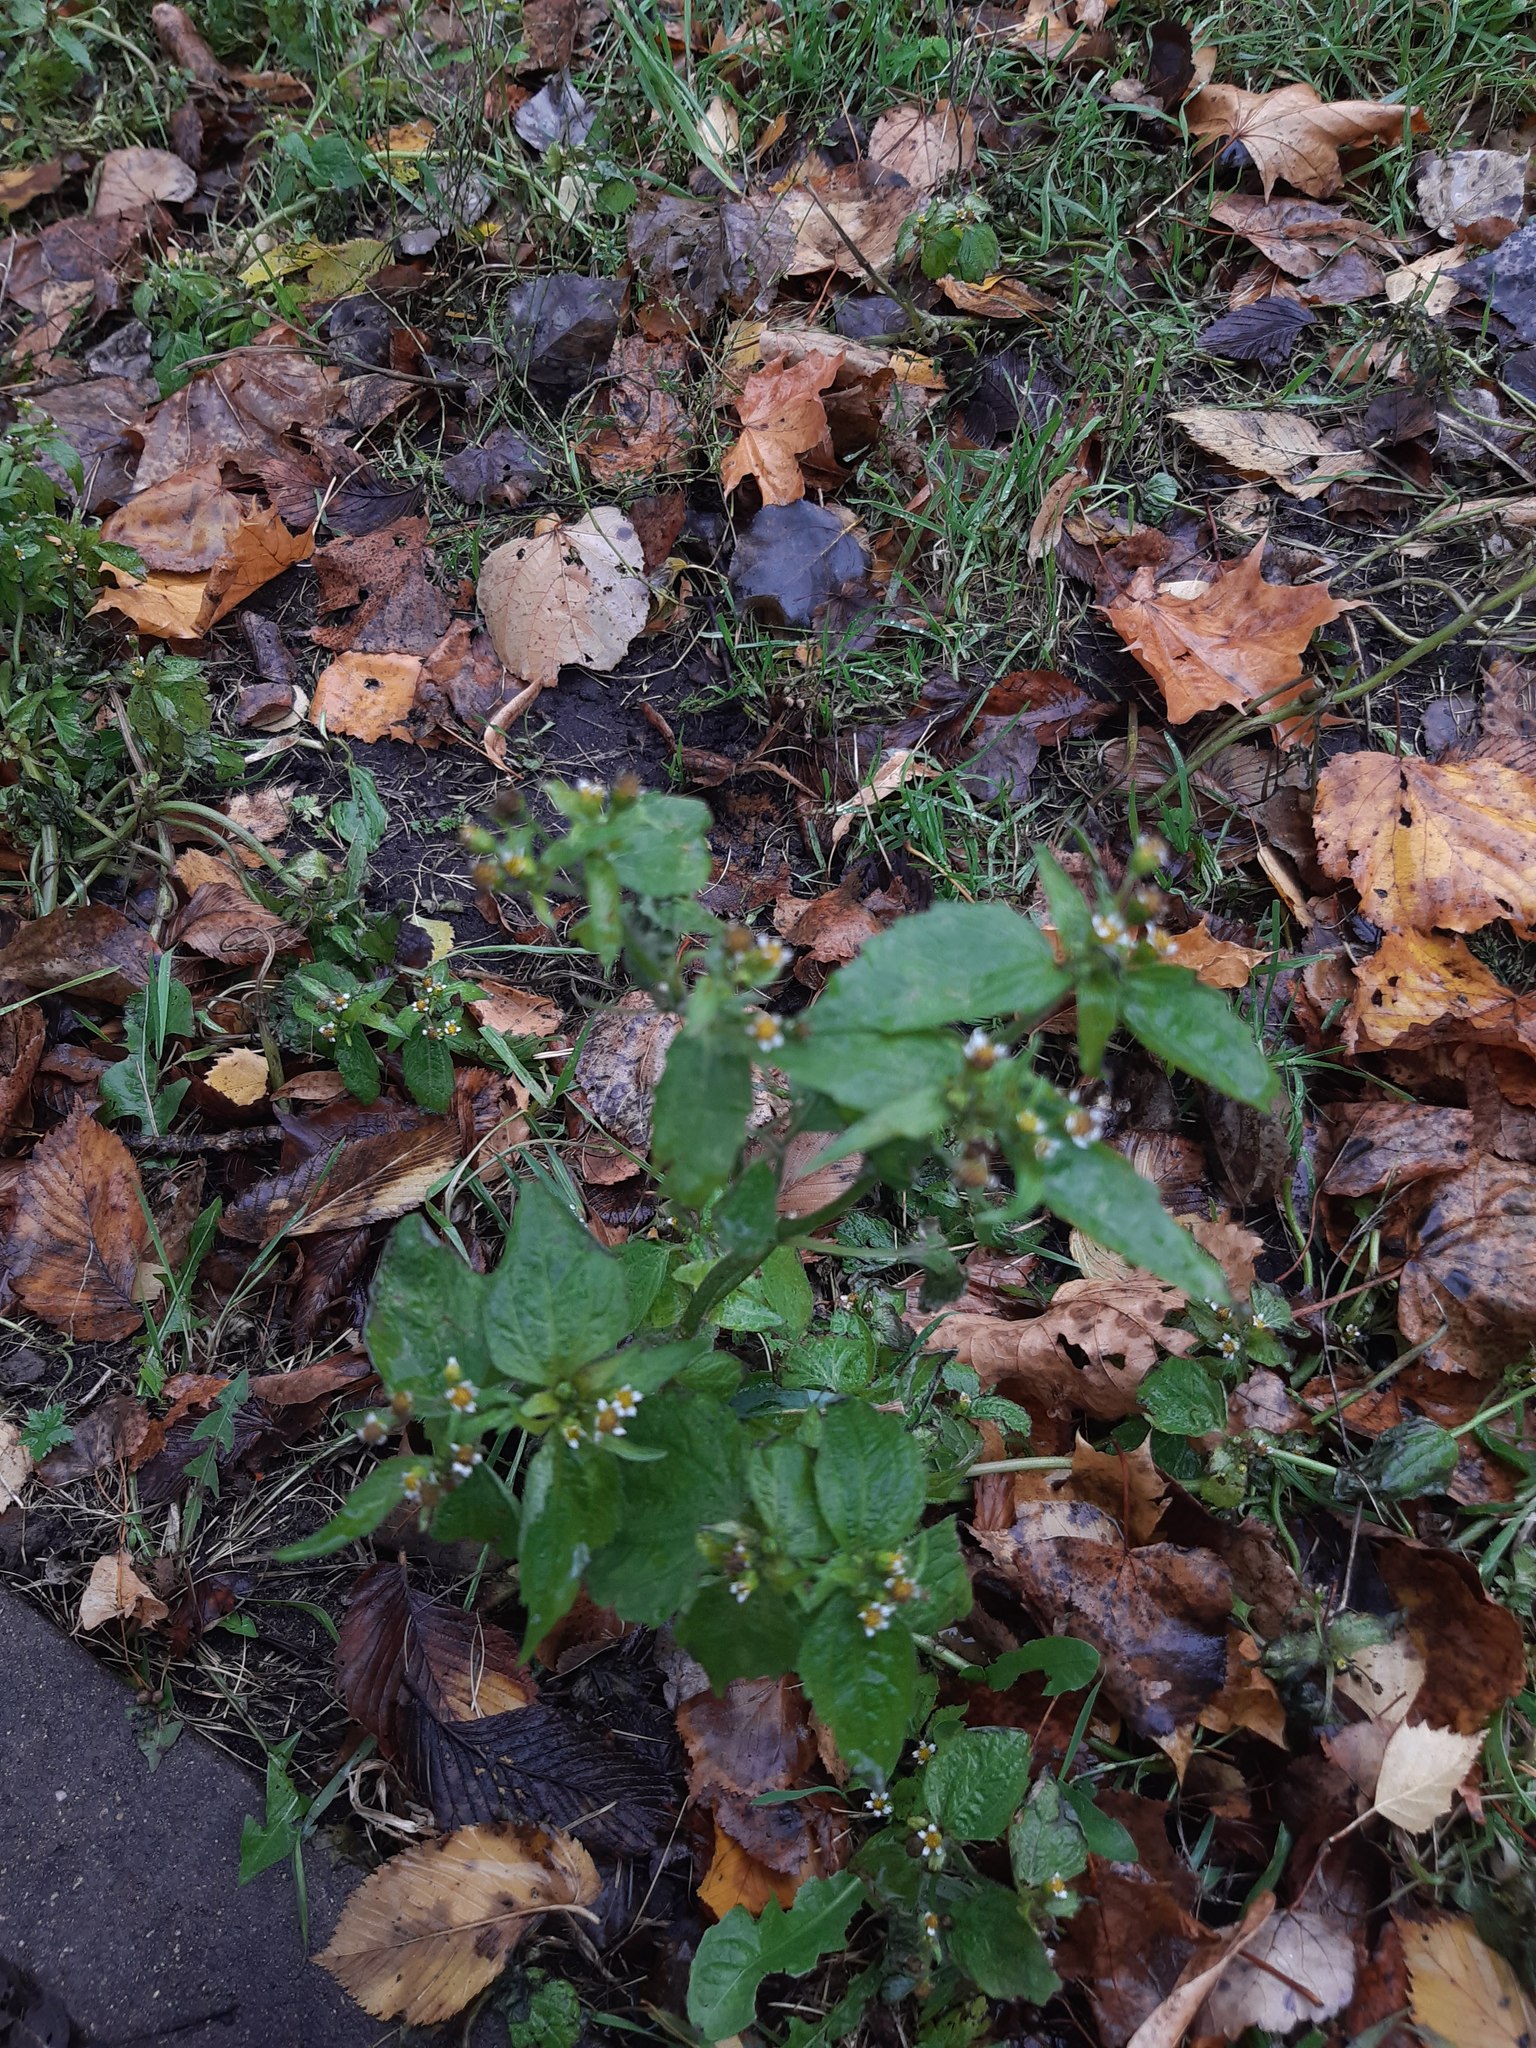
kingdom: Plantae
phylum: Tracheophyta
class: Magnoliopsida
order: Asterales
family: Asteraceae
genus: Galinsoga
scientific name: Galinsoga quadriradiata
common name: Shaggy soldier
